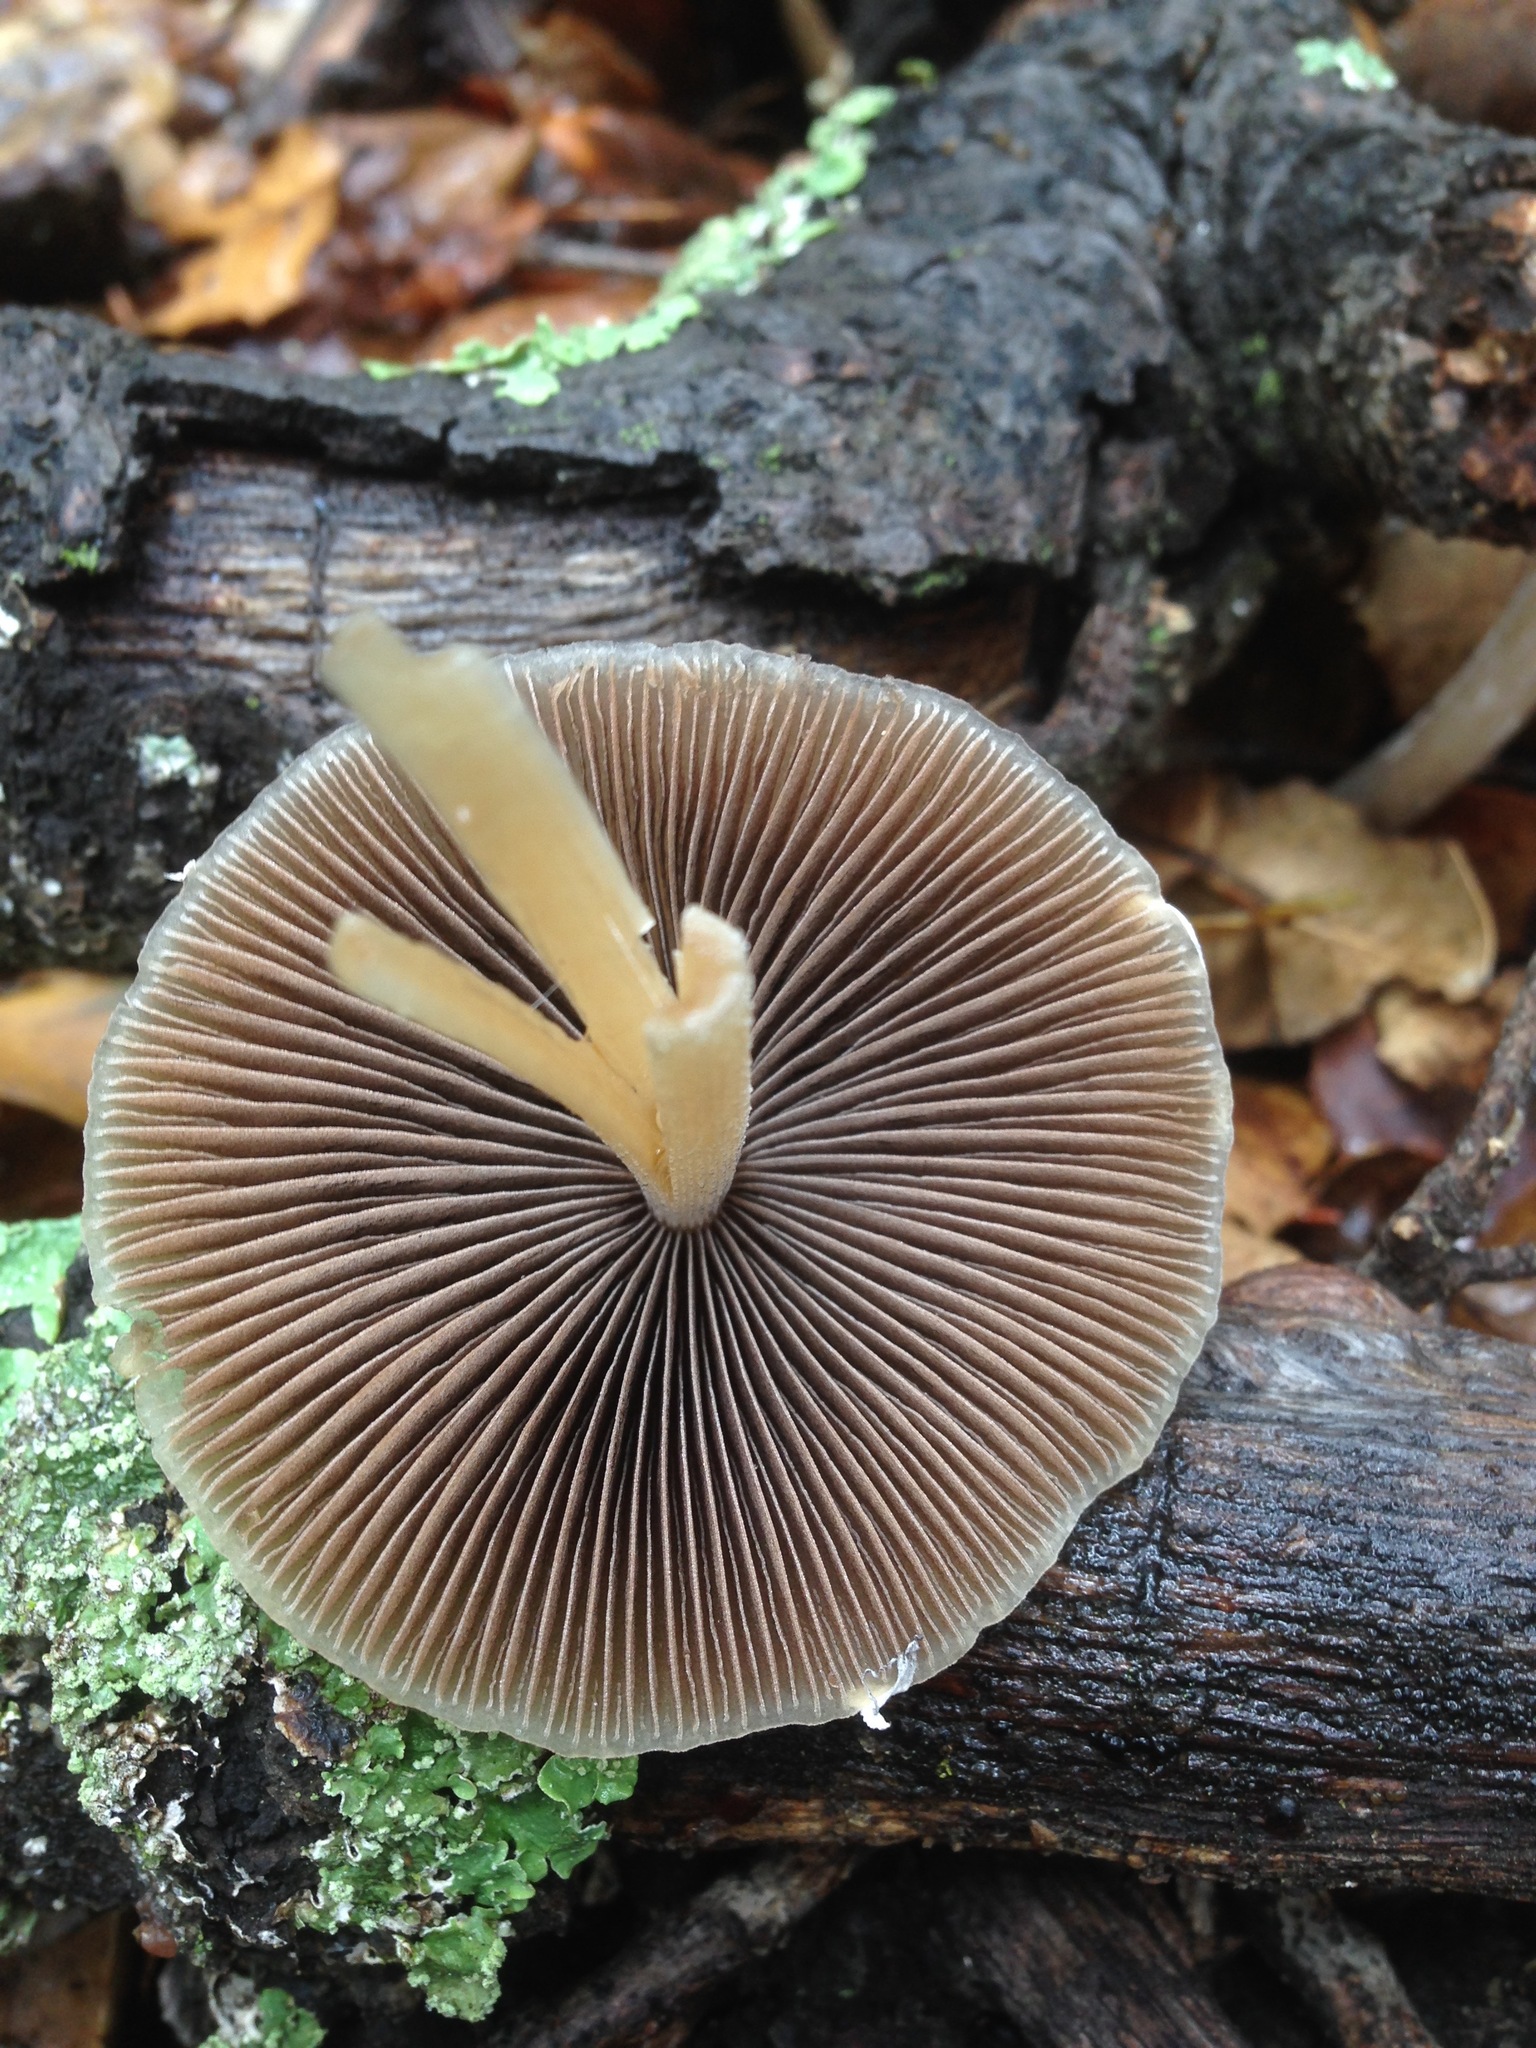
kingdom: Fungi
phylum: Basidiomycota
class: Agaricomycetes
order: Agaricales
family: Psathyrellaceae
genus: Psathyrella
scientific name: Psathyrella longipes
